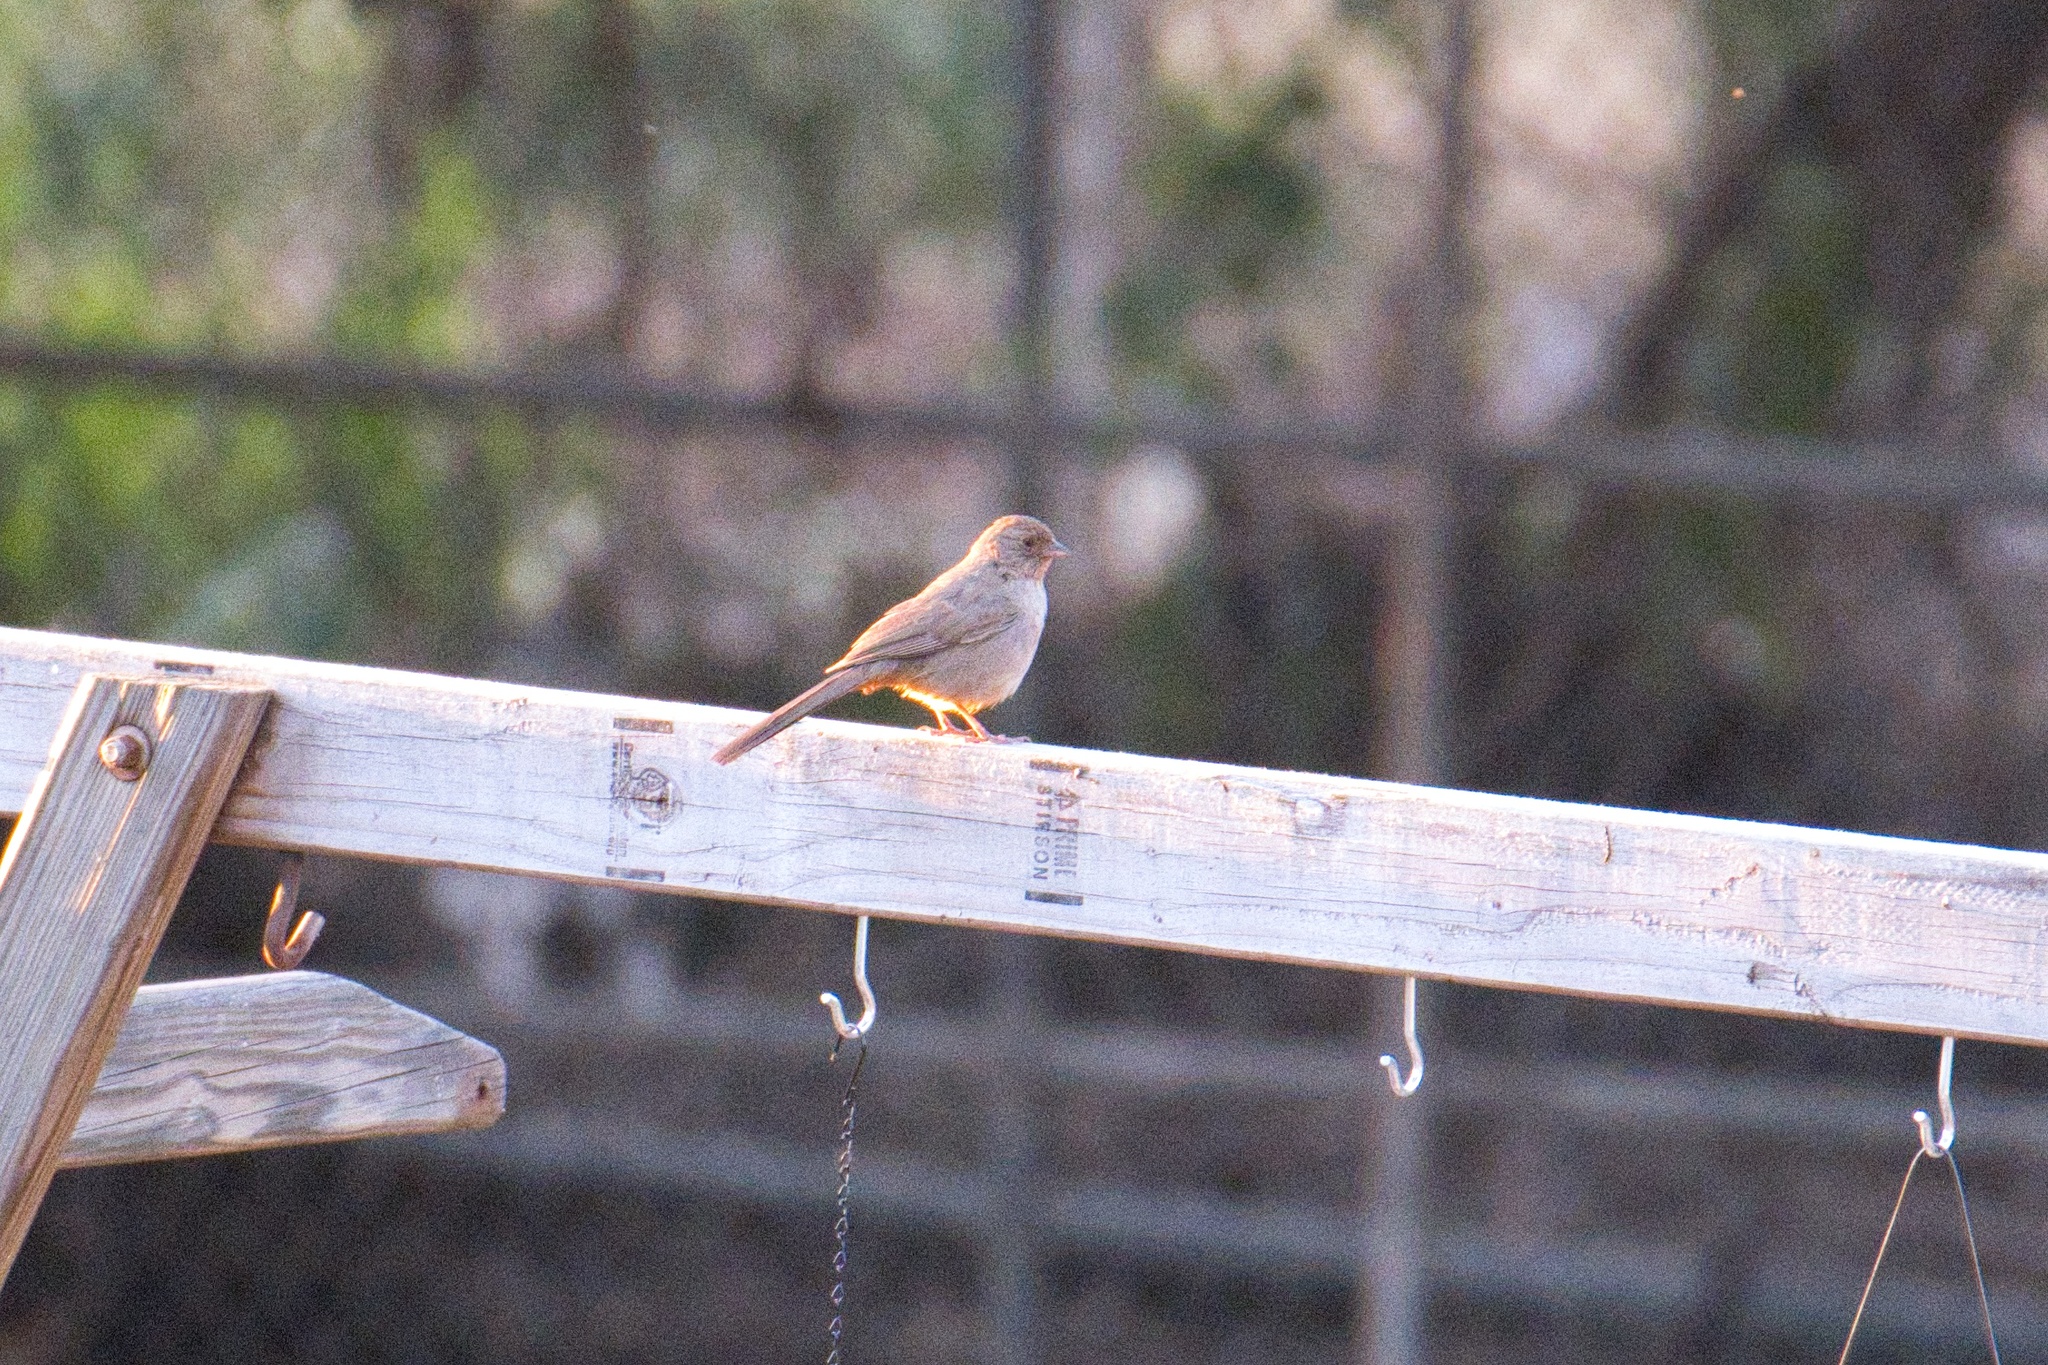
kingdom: Animalia
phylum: Chordata
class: Aves
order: Passeriformes
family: Passerellidae
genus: Melozone
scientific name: Melozone crissalis
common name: California towhee
